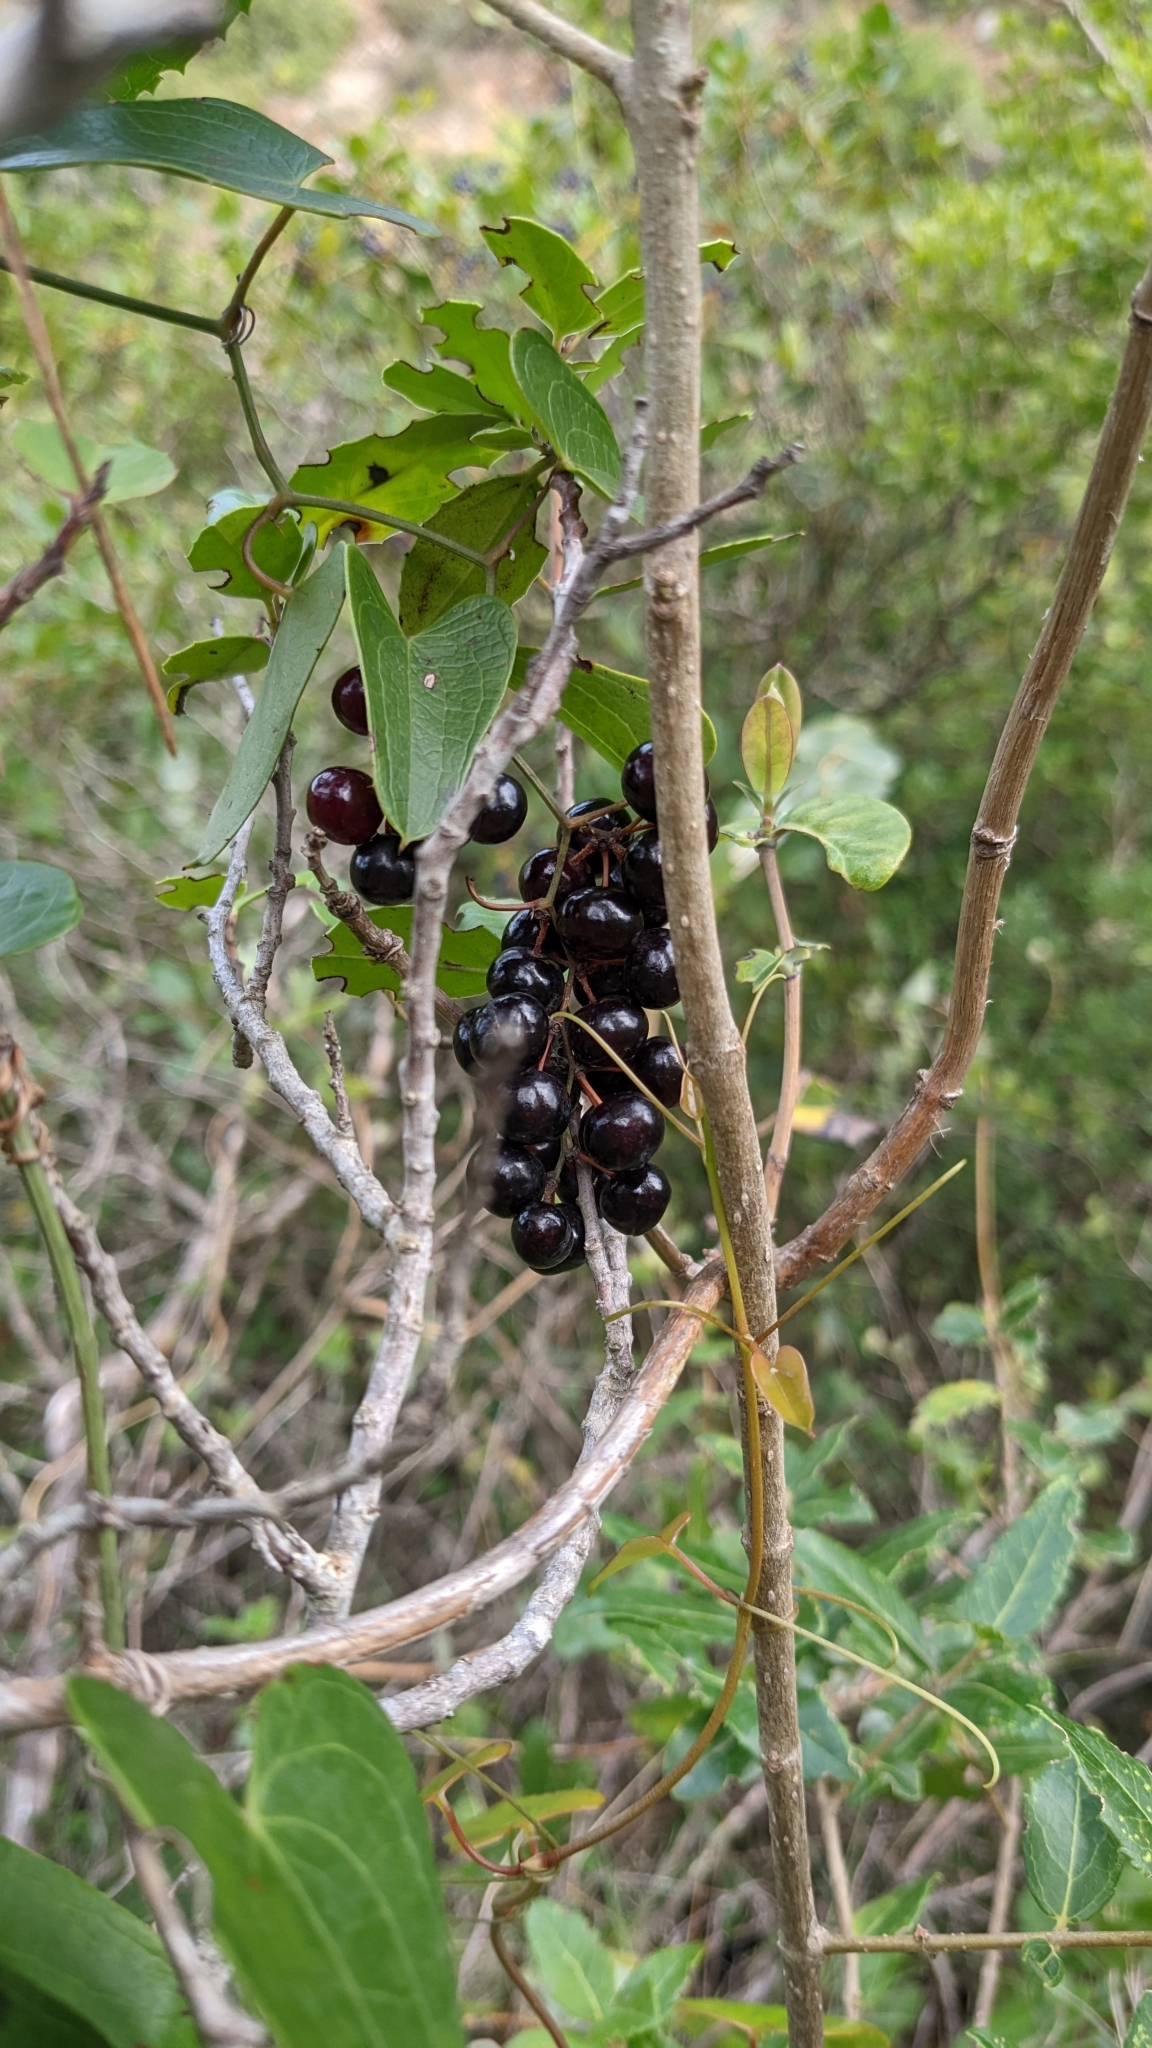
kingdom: Plantae
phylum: Tracheophyta
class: Liliopsida
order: Liliales
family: Smilacaceae
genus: Smilax
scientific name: Smilax aspera
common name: Common smilax
